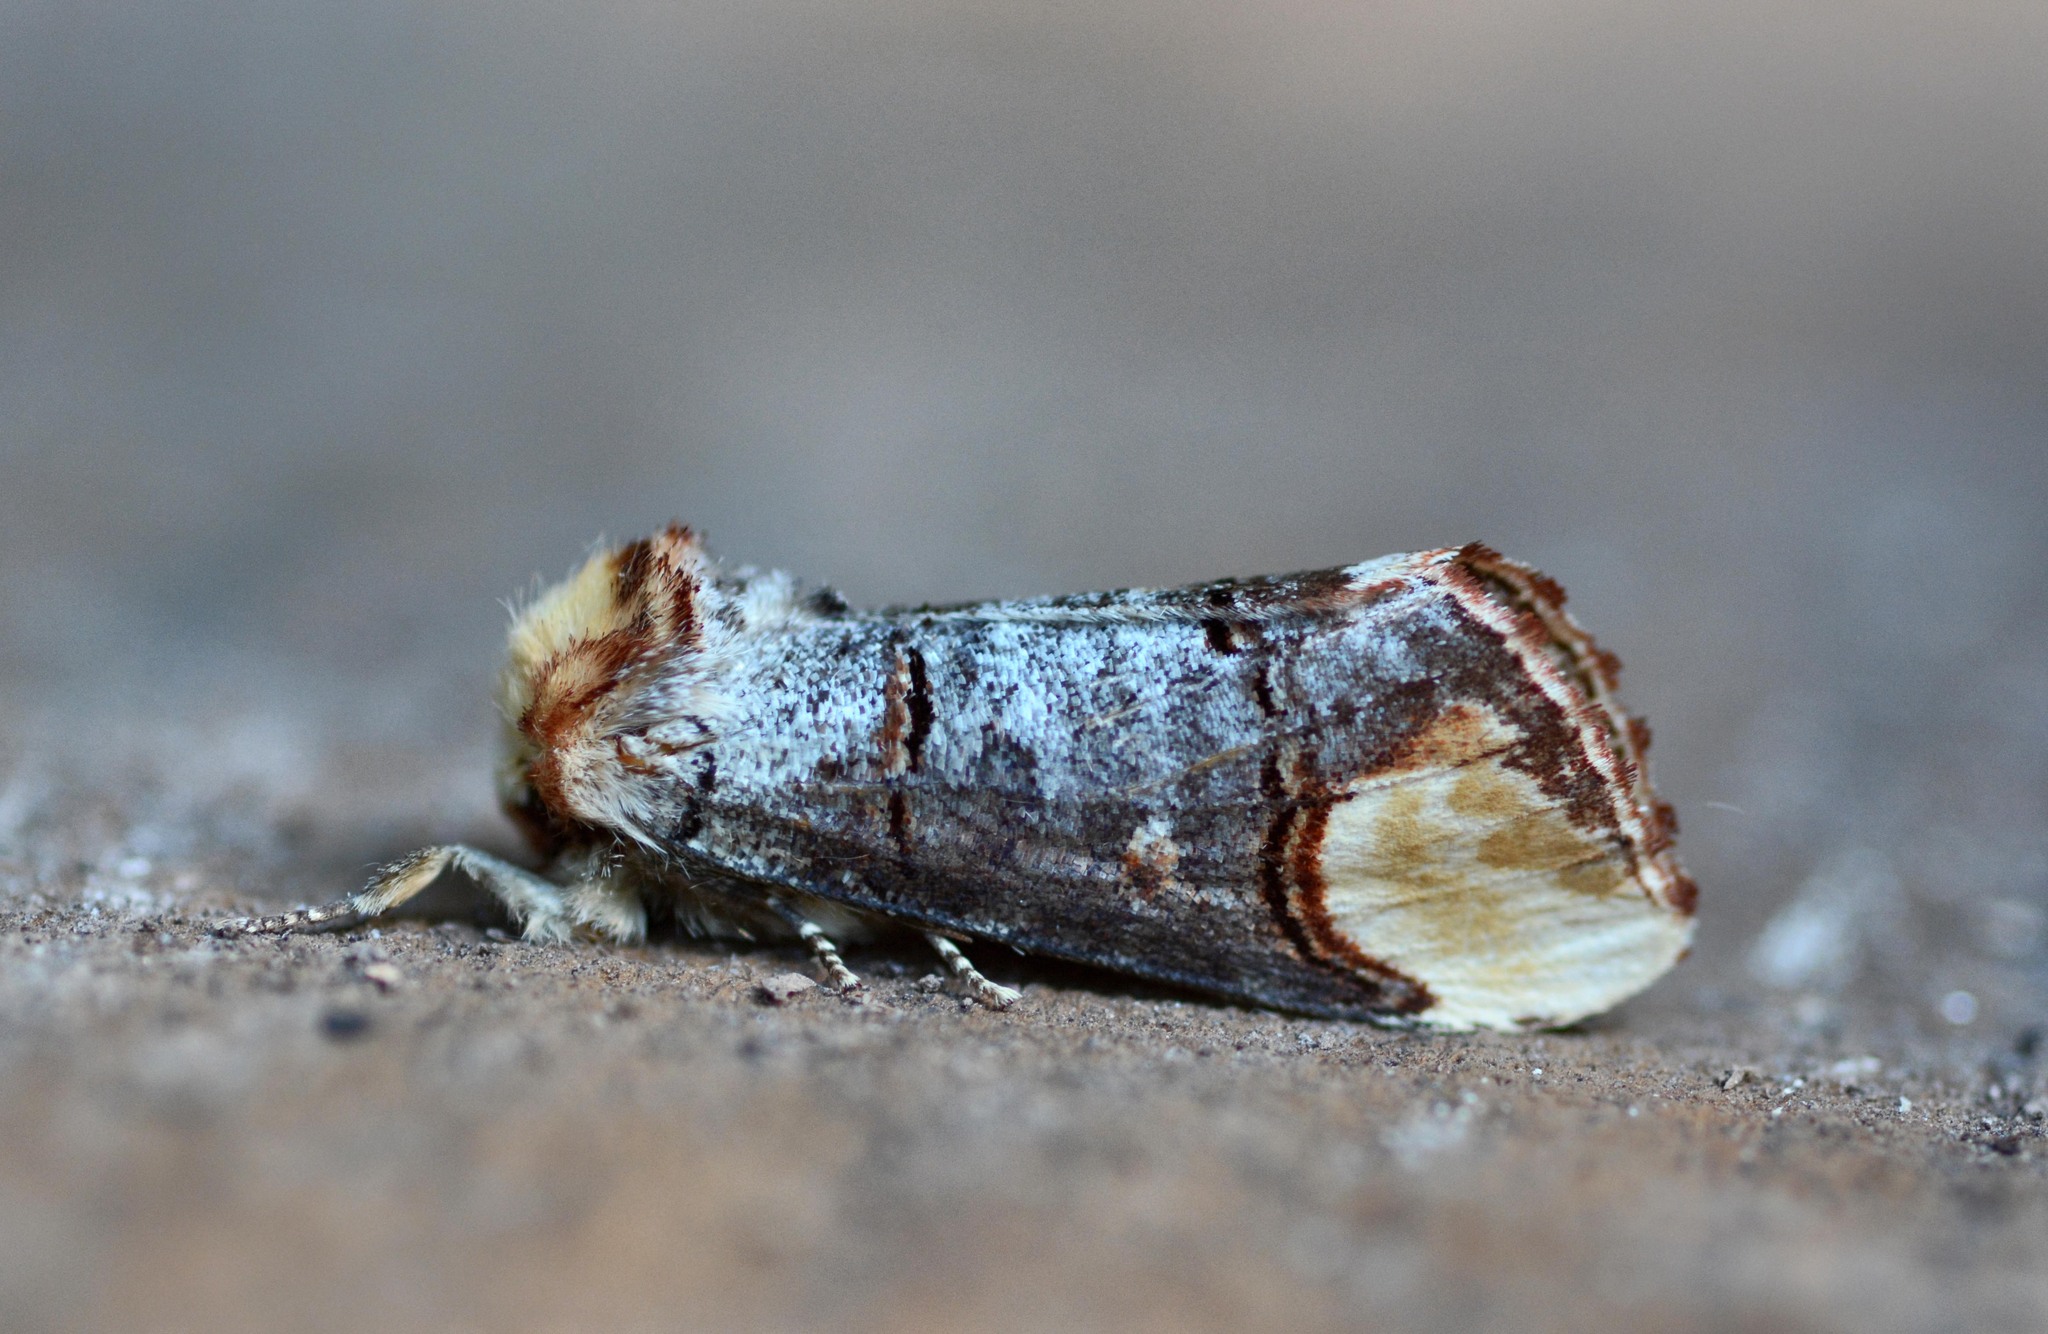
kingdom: Animalia
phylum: Arthropoda
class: Insecta
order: Lepidoptera
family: Notodontidae
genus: Phalera
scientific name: Phalera bucephala
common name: Buff-tip
